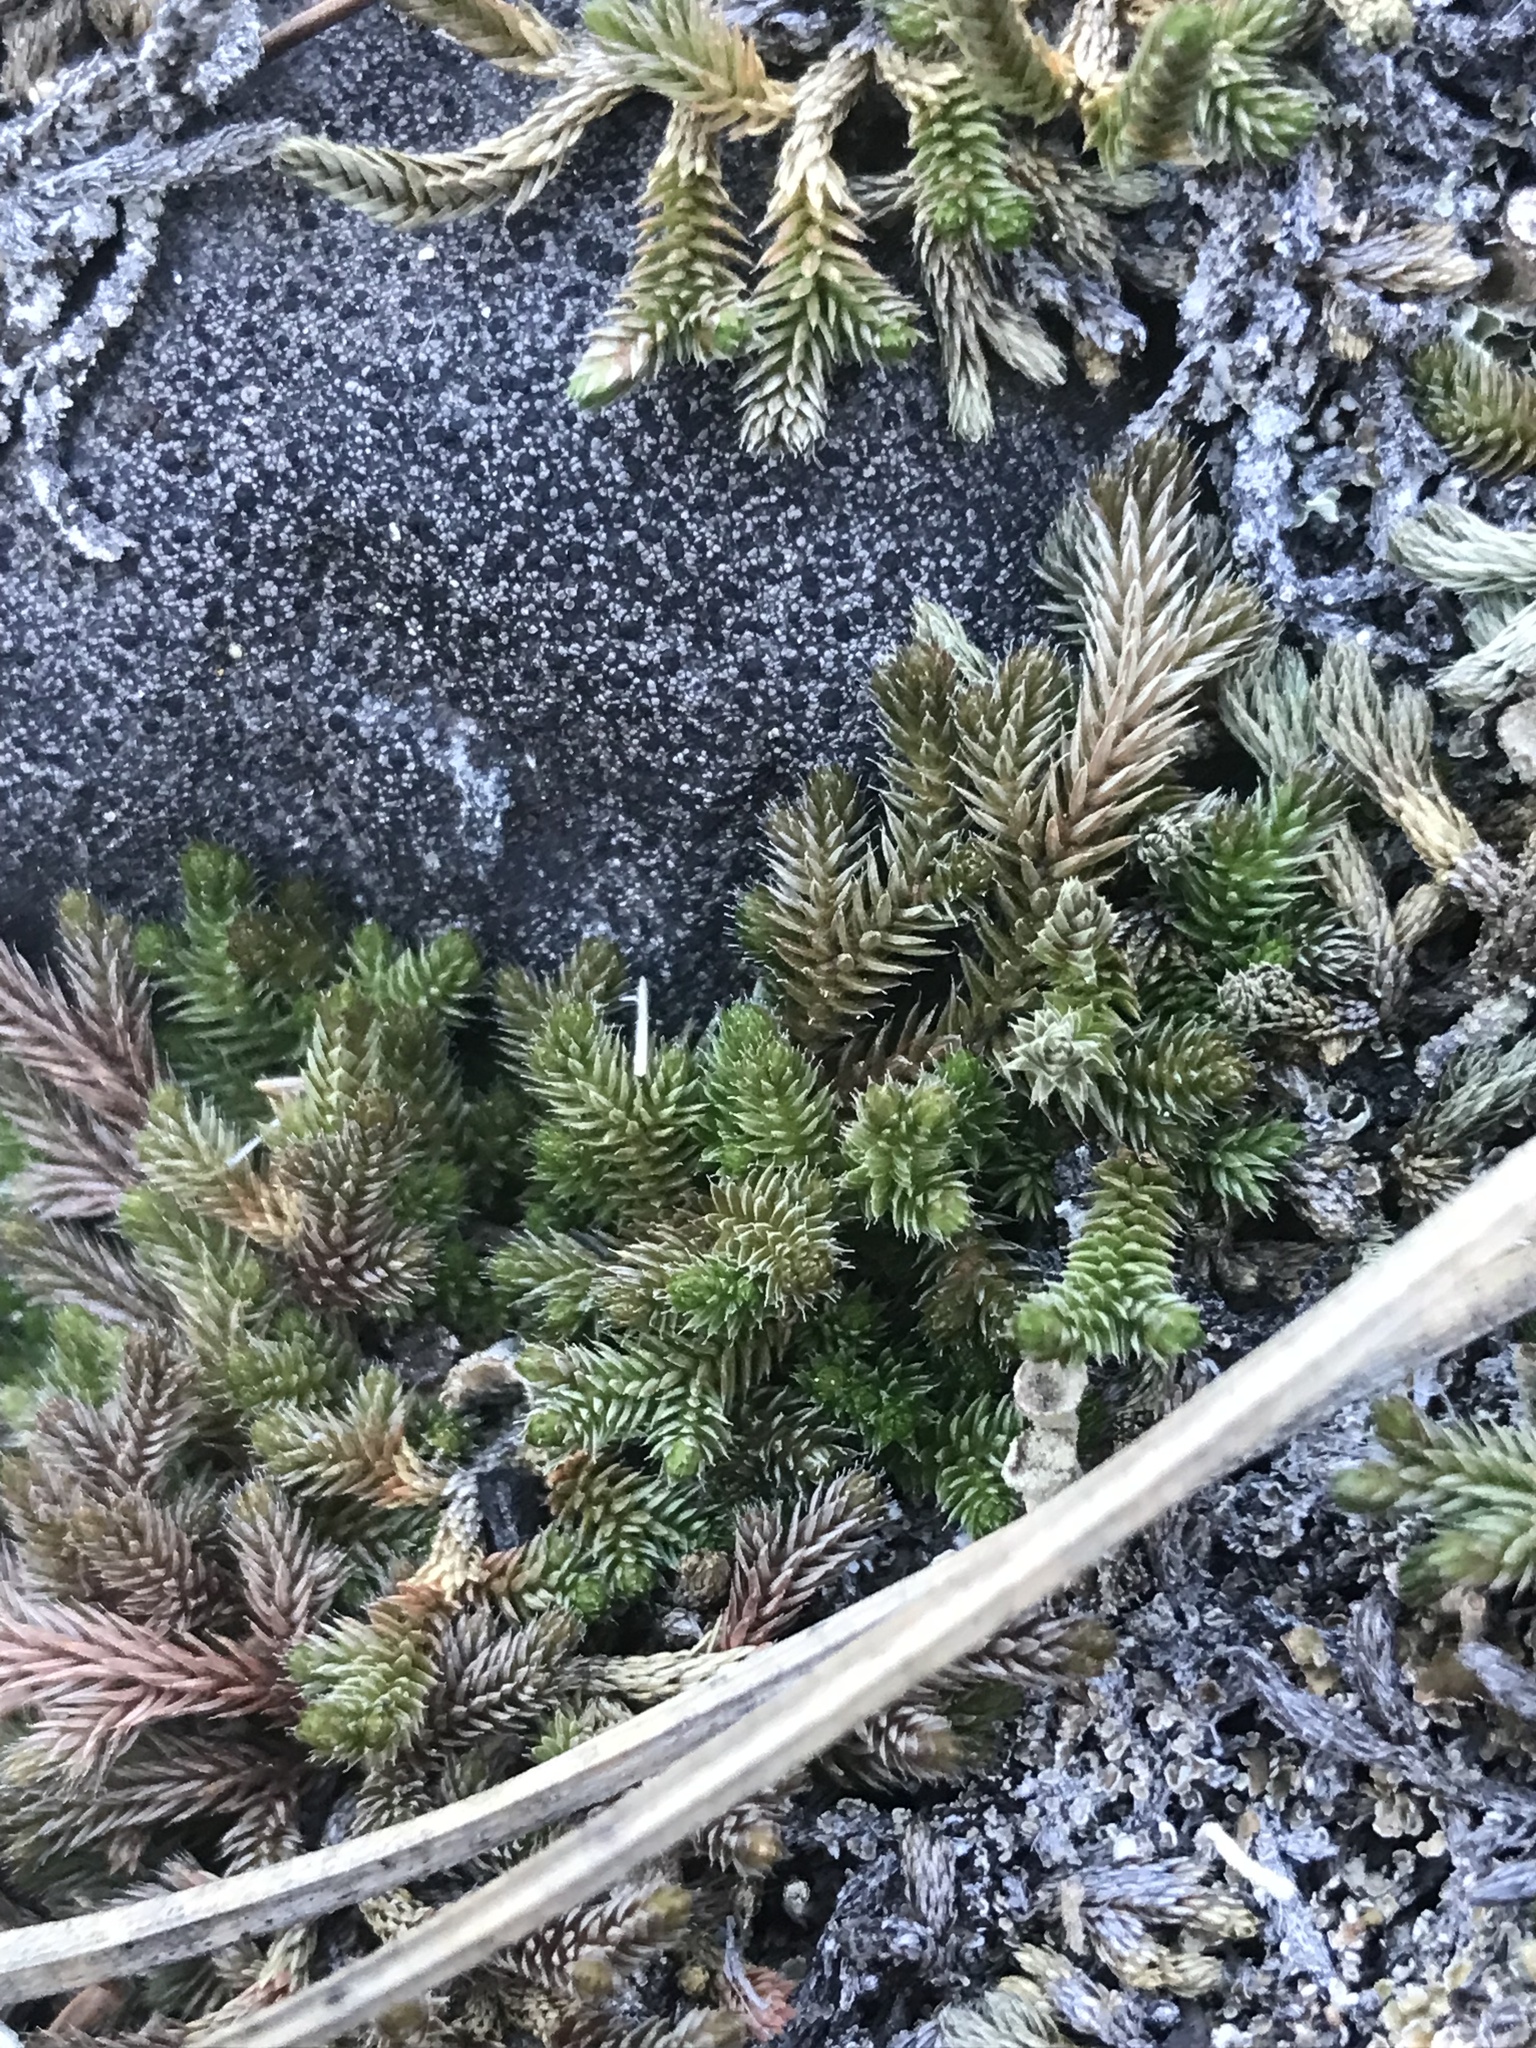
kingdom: Plantae
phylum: Tracheophyta
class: Lycopodiopsida
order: Selaginellales
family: Selaginellaceae
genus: Selaginella
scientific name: Selaginella wallacei
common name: Wallace's selaginella
